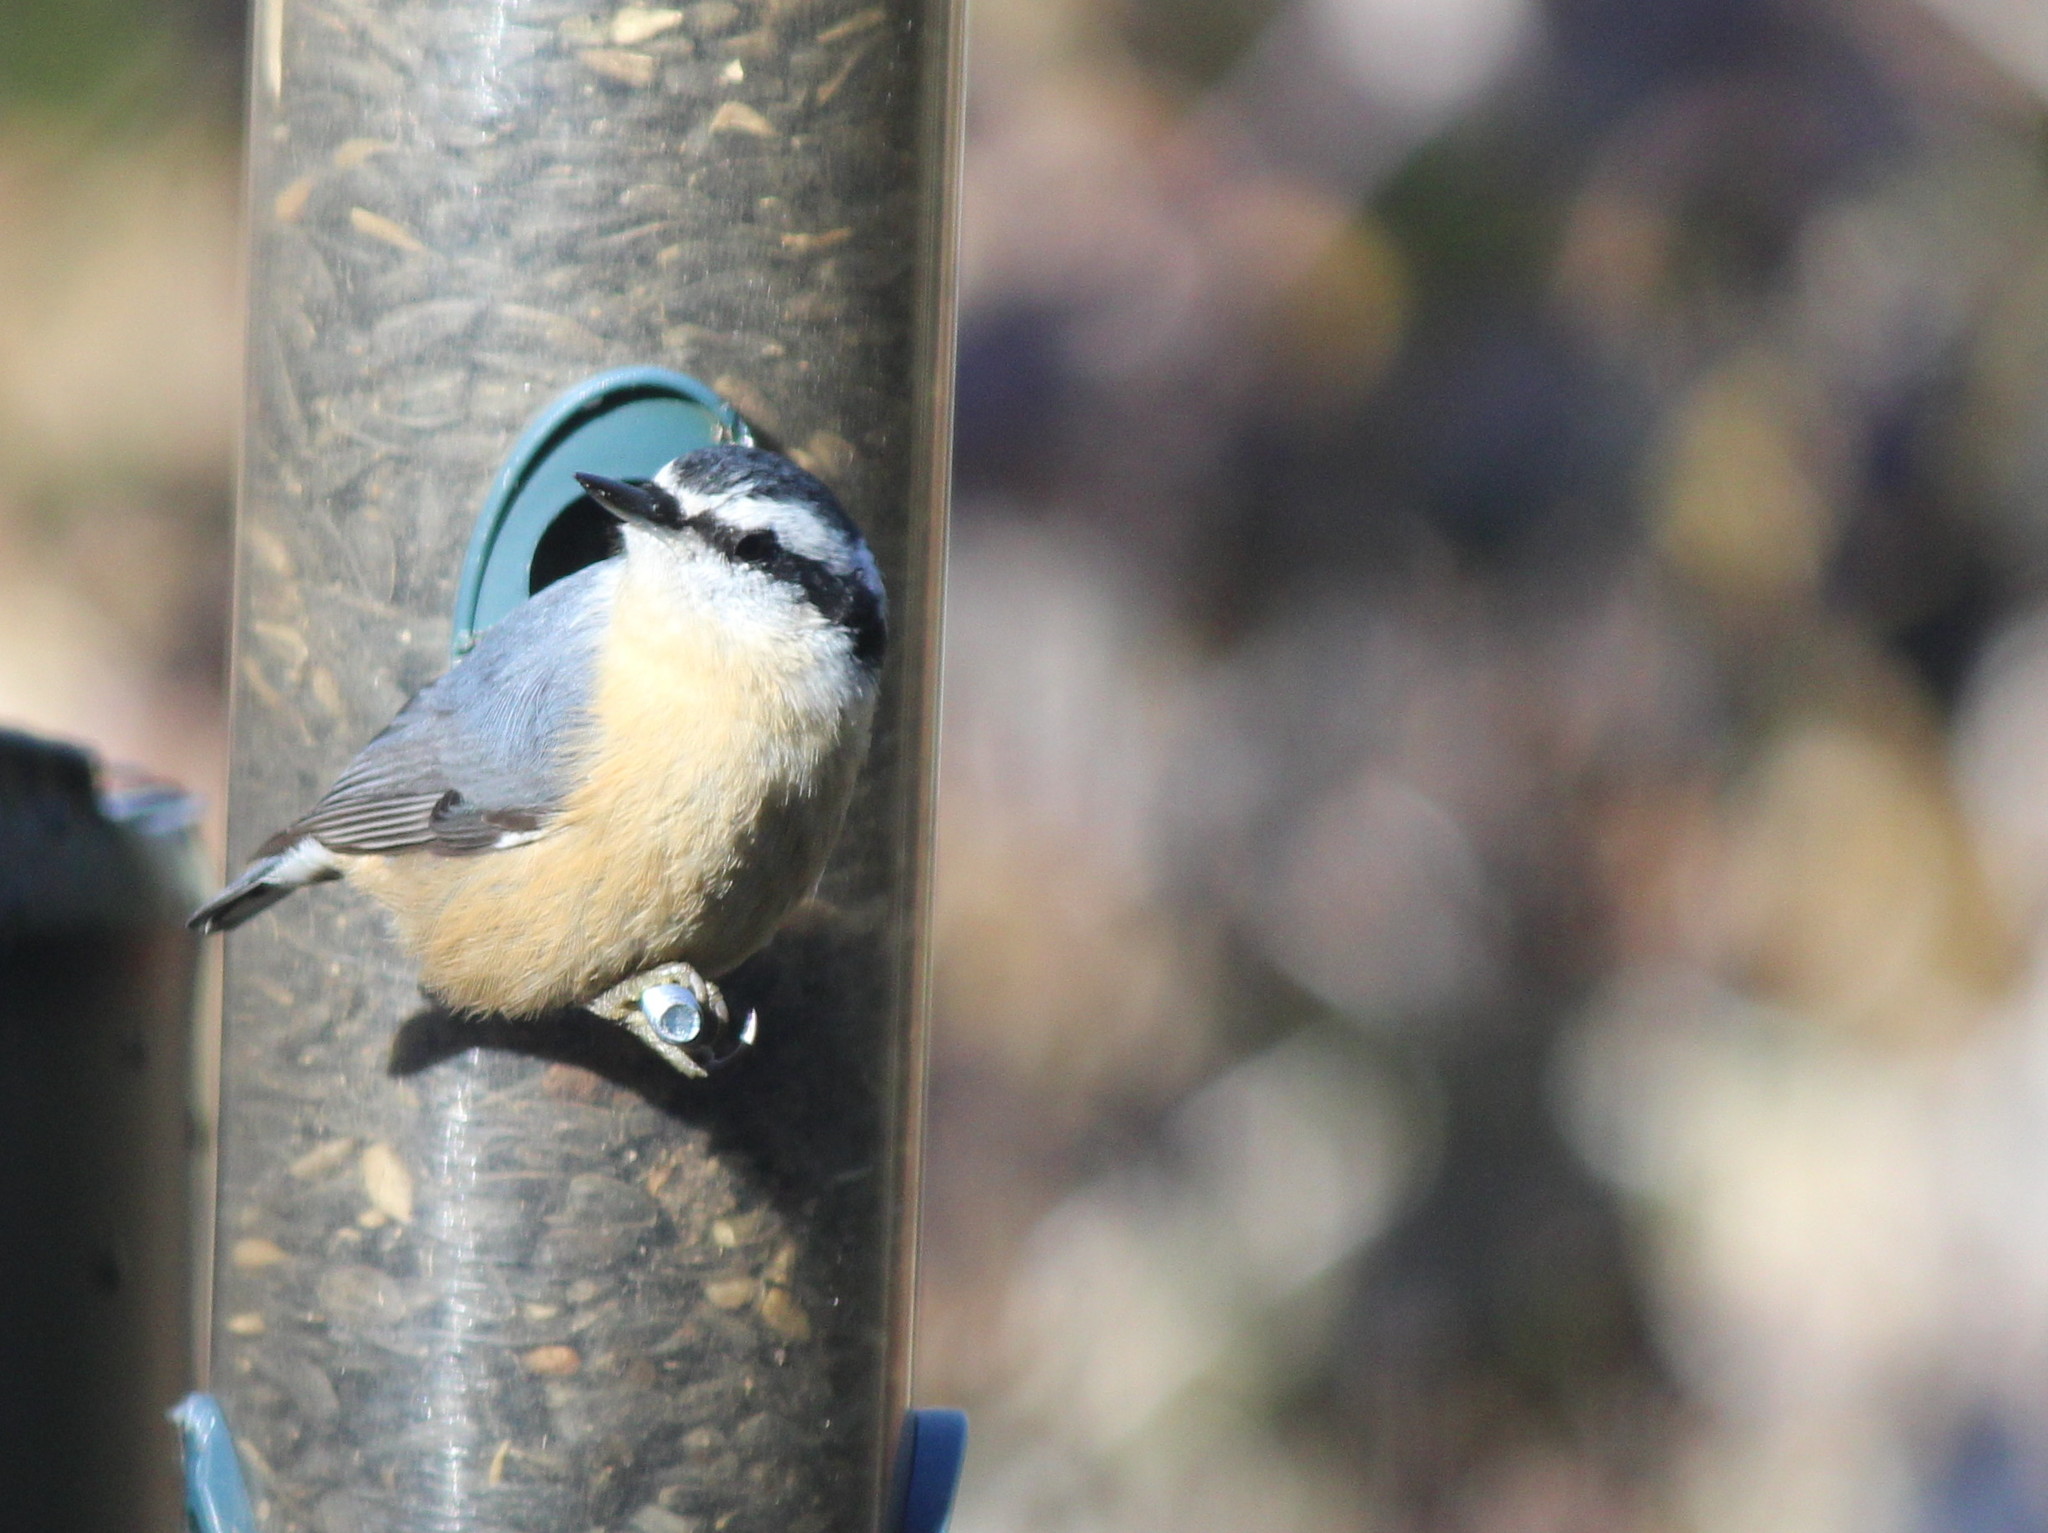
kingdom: Animalia
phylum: Chordata
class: Aves
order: Passeriformes
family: Sittidae
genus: Sitta
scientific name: Sitta canadensis
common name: Red-breasted nuthatch
